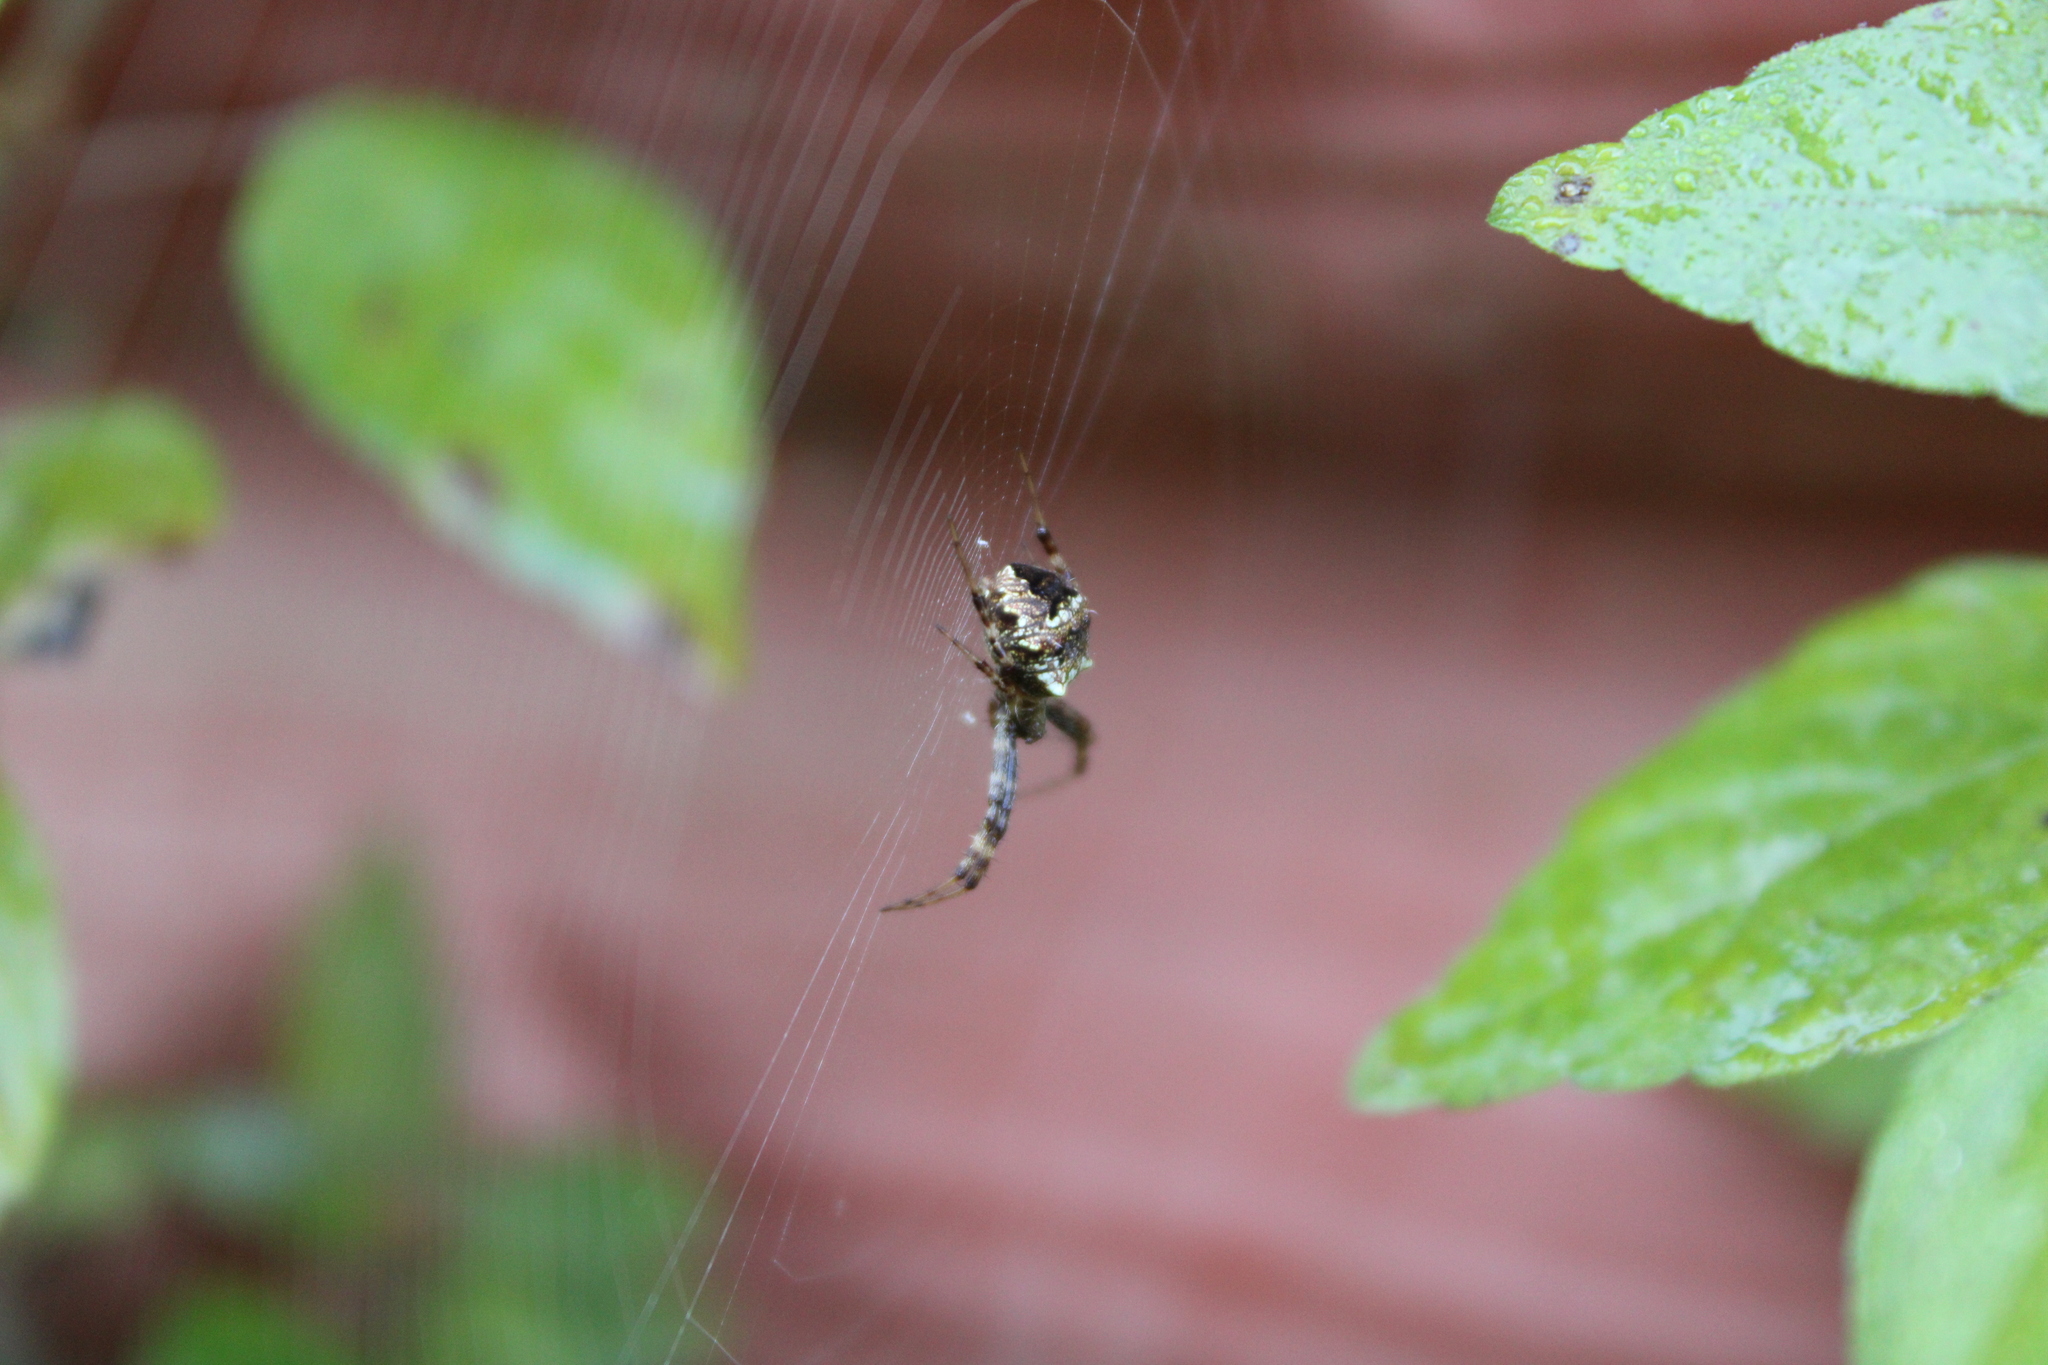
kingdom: Animalia
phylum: Arthropoda
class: Arachnida
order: Araneae
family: Araneidae
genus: Gea
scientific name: Gea heptagon
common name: Orb weavers
